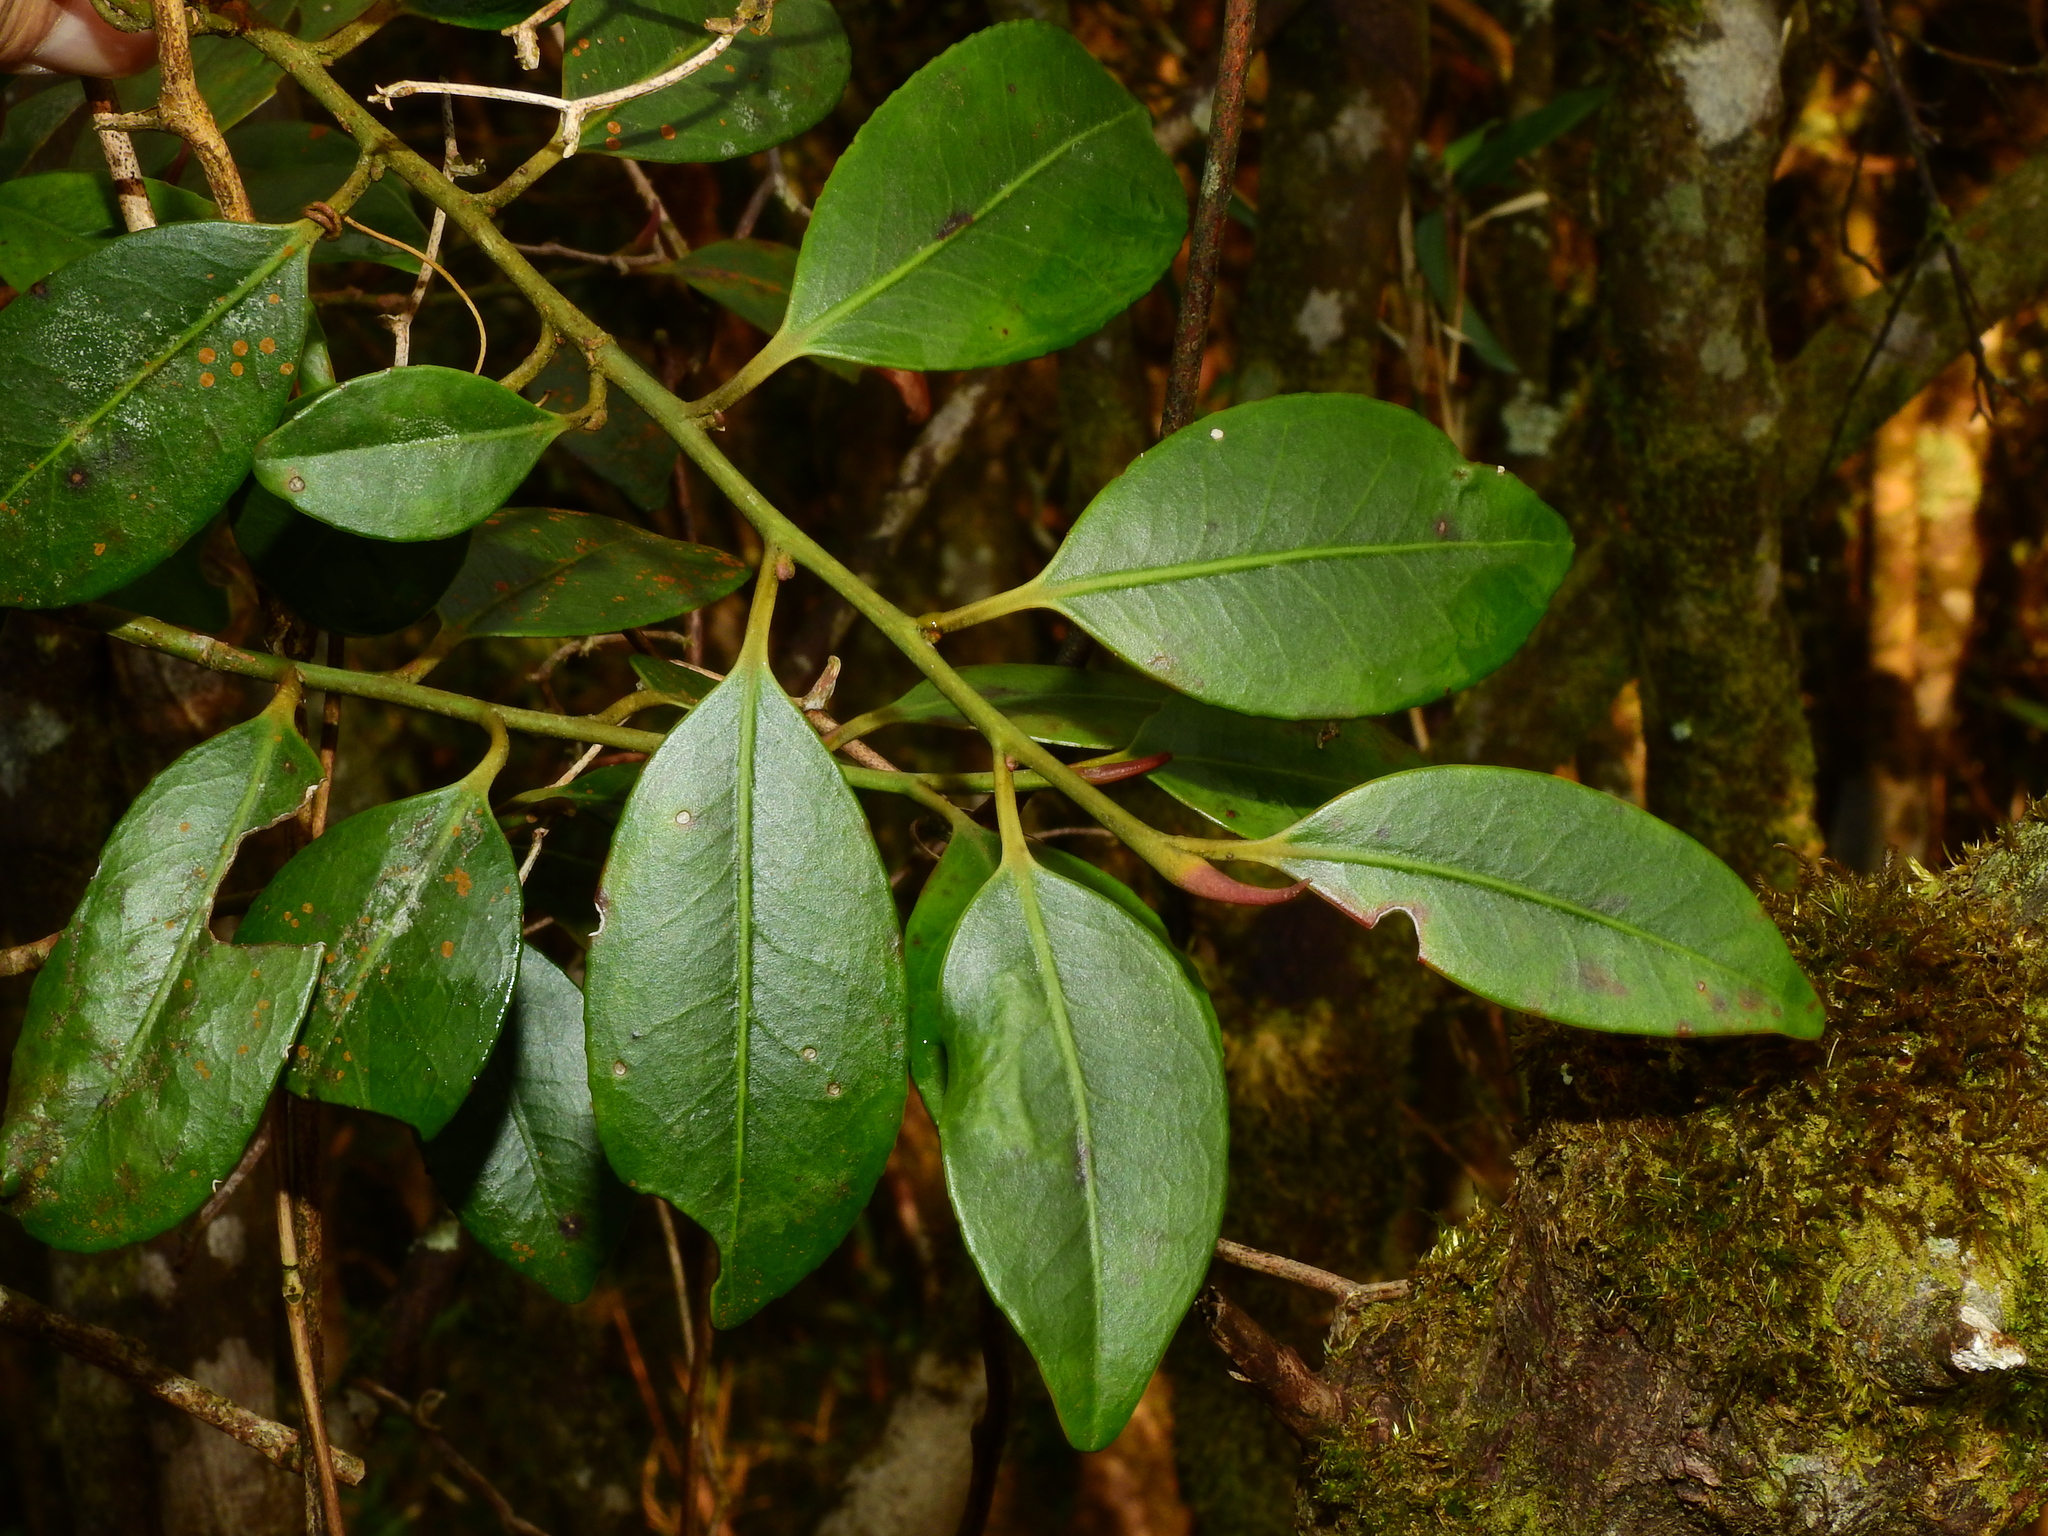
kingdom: Plantae
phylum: Tracheophyta
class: Magnoliopsida
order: Ericales
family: Pentaphylacaceae
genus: Cleyera
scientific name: Cleyera japonica
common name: Sakaki
